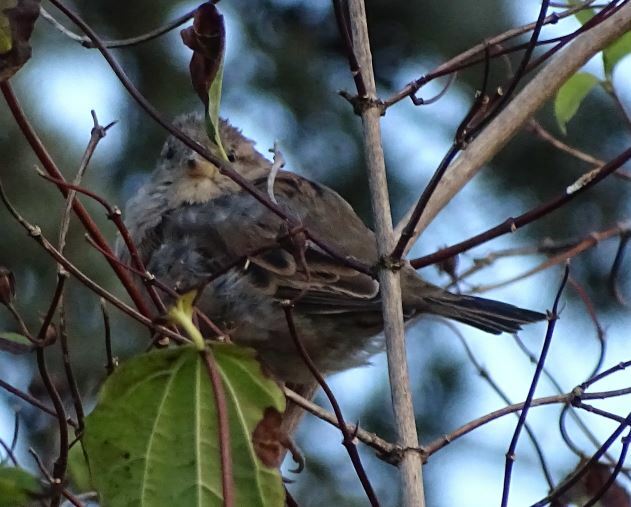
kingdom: Animalia
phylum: Chordata
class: Aves
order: Passeriformes
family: Passeridae
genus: Passer
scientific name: Passer domesticus
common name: House sparrow
